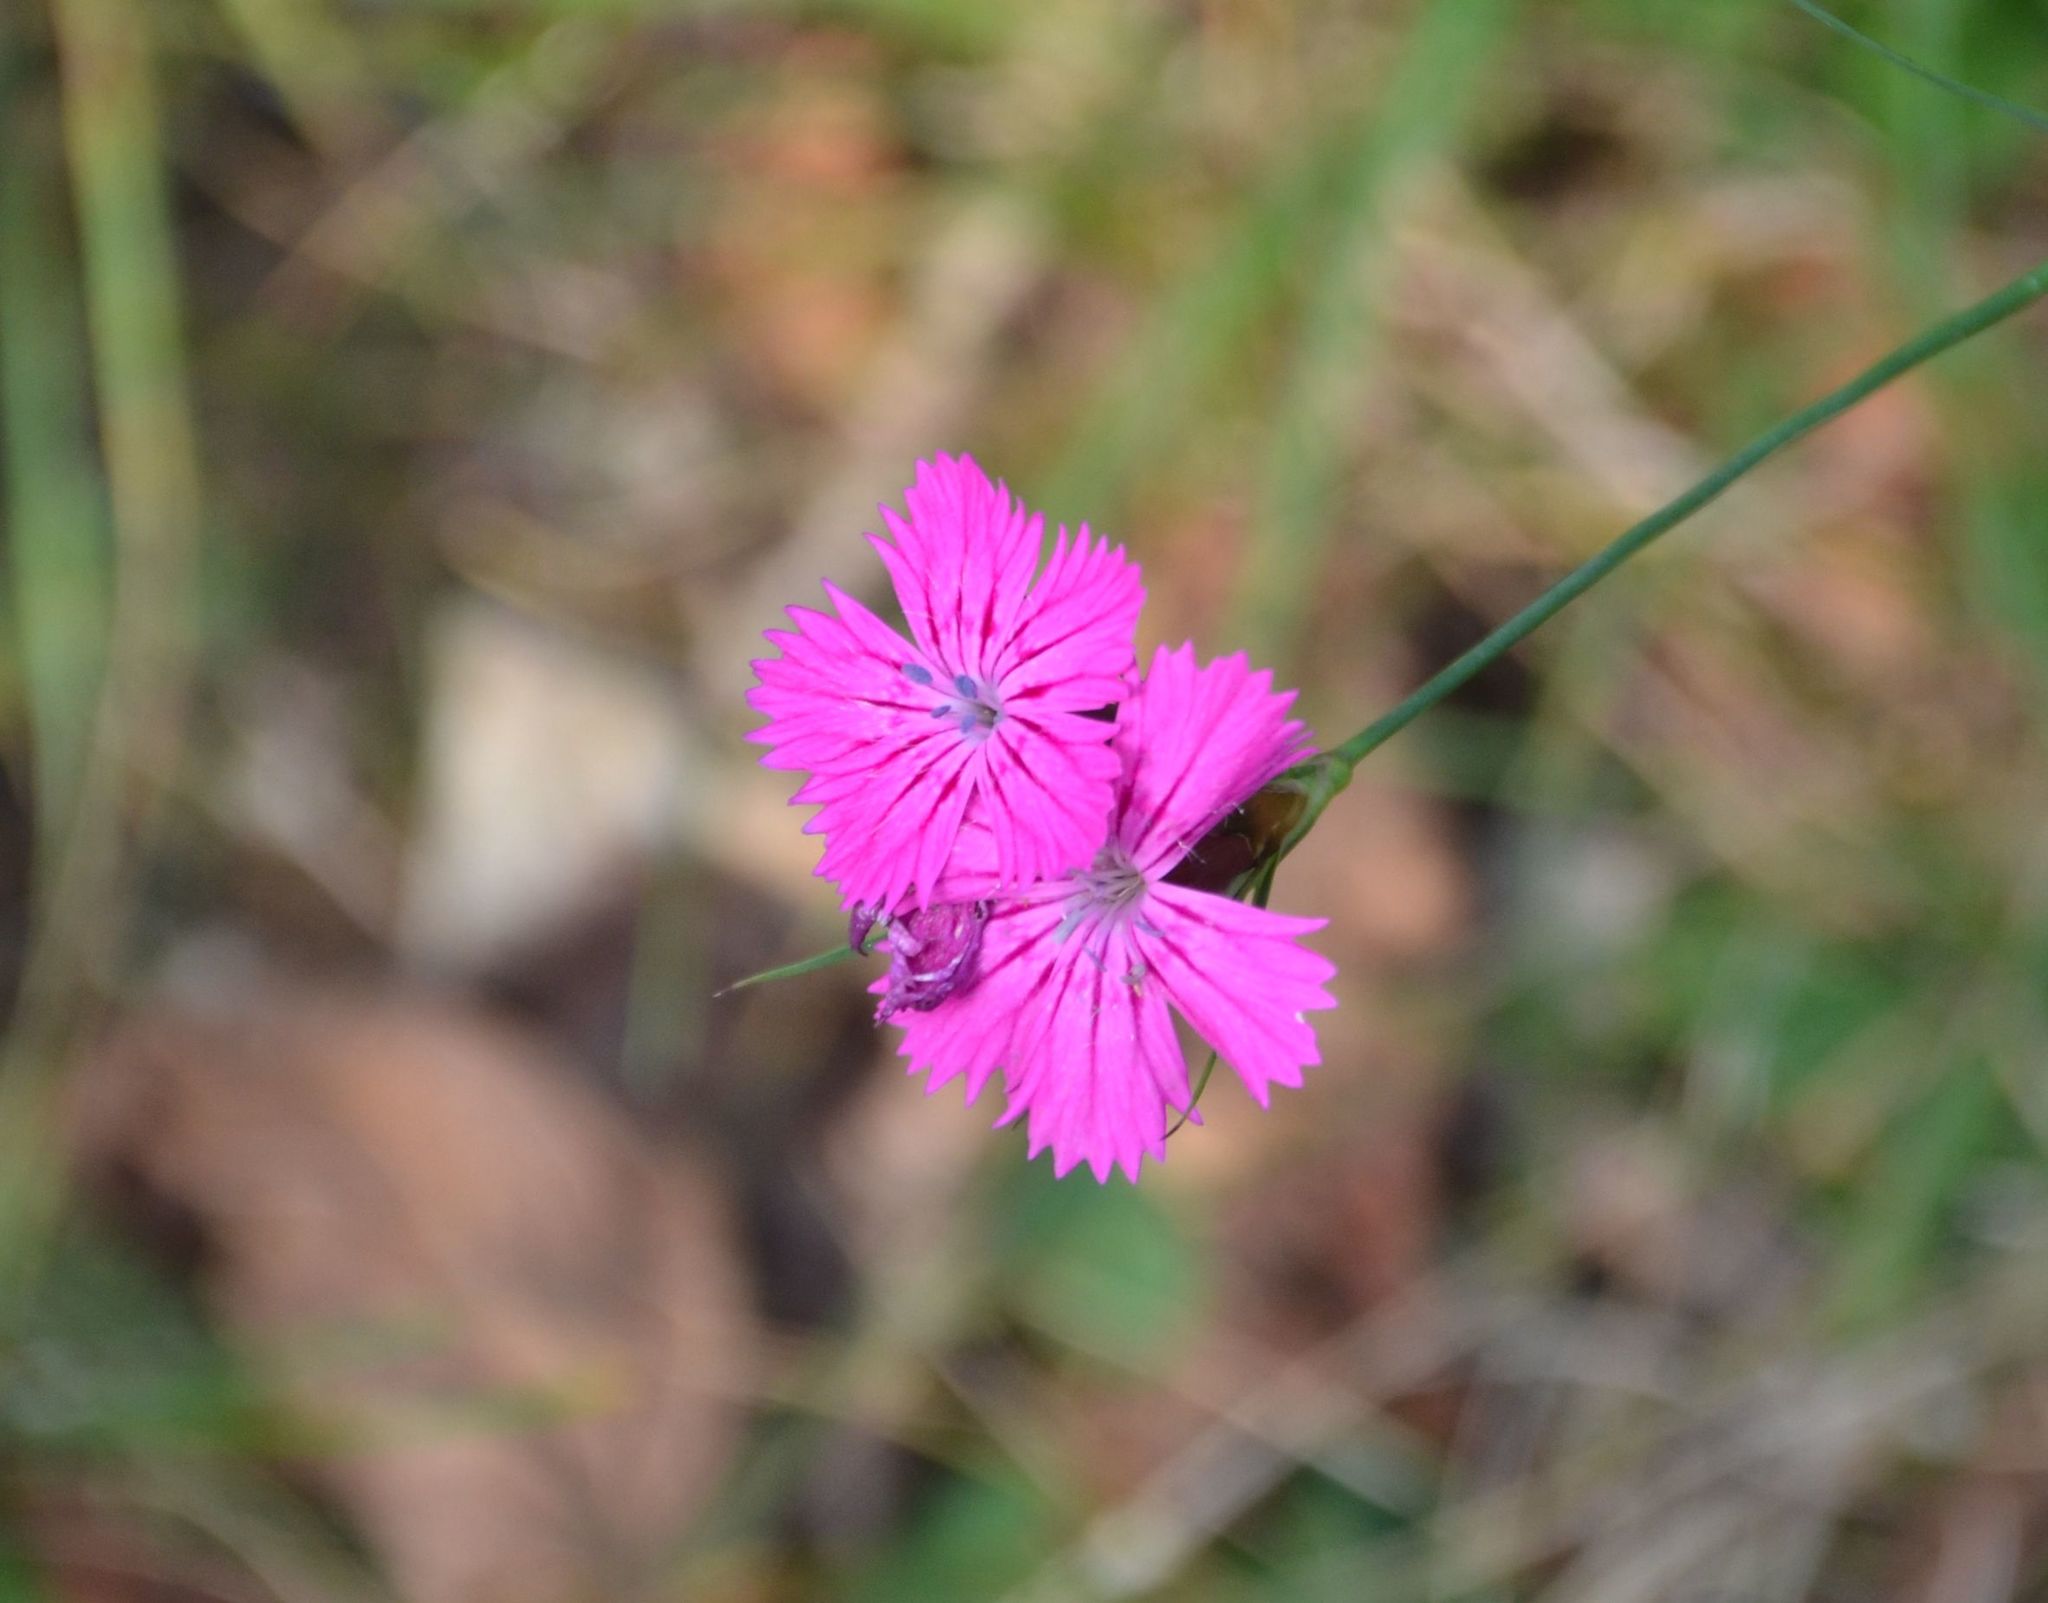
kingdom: Plantae
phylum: Tracheophyta
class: Magnoliopsida
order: Caryophyllales
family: Caryophyllaceae
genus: Dianthus
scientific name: Dianthus carthusianorum
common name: Carthusian pink
